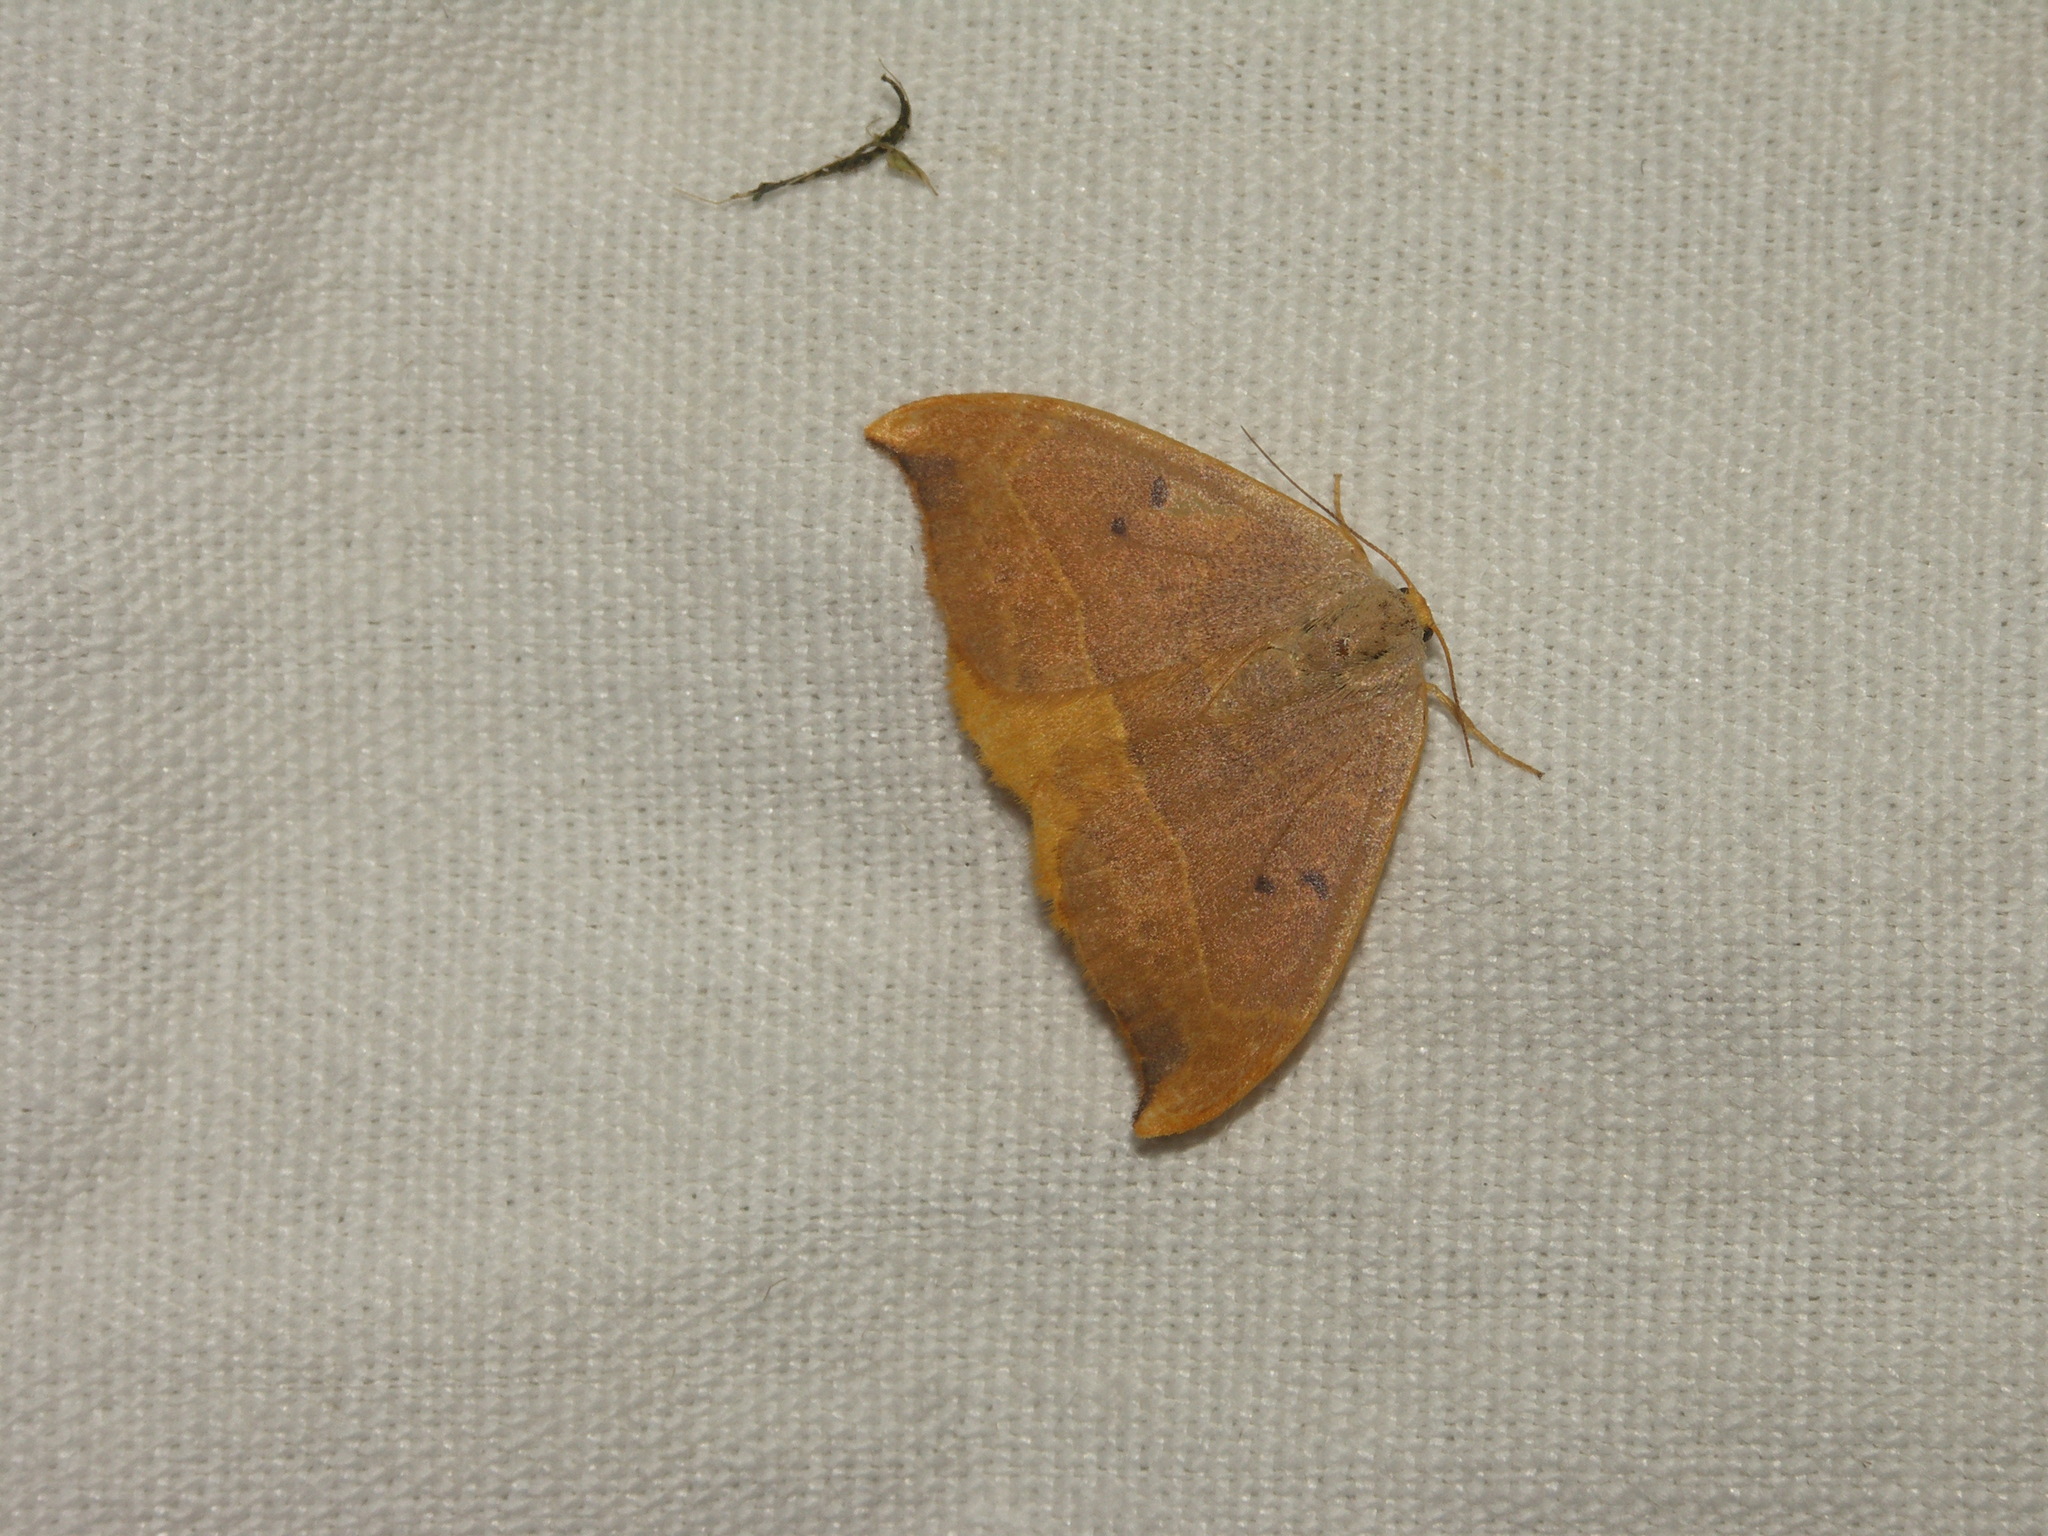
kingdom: Animalia
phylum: Arthropoda
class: Insecta
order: Lepidoptera
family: Drepanidae
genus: Watsonalla
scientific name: Watsonalla binaria
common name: Oak hook-tip
